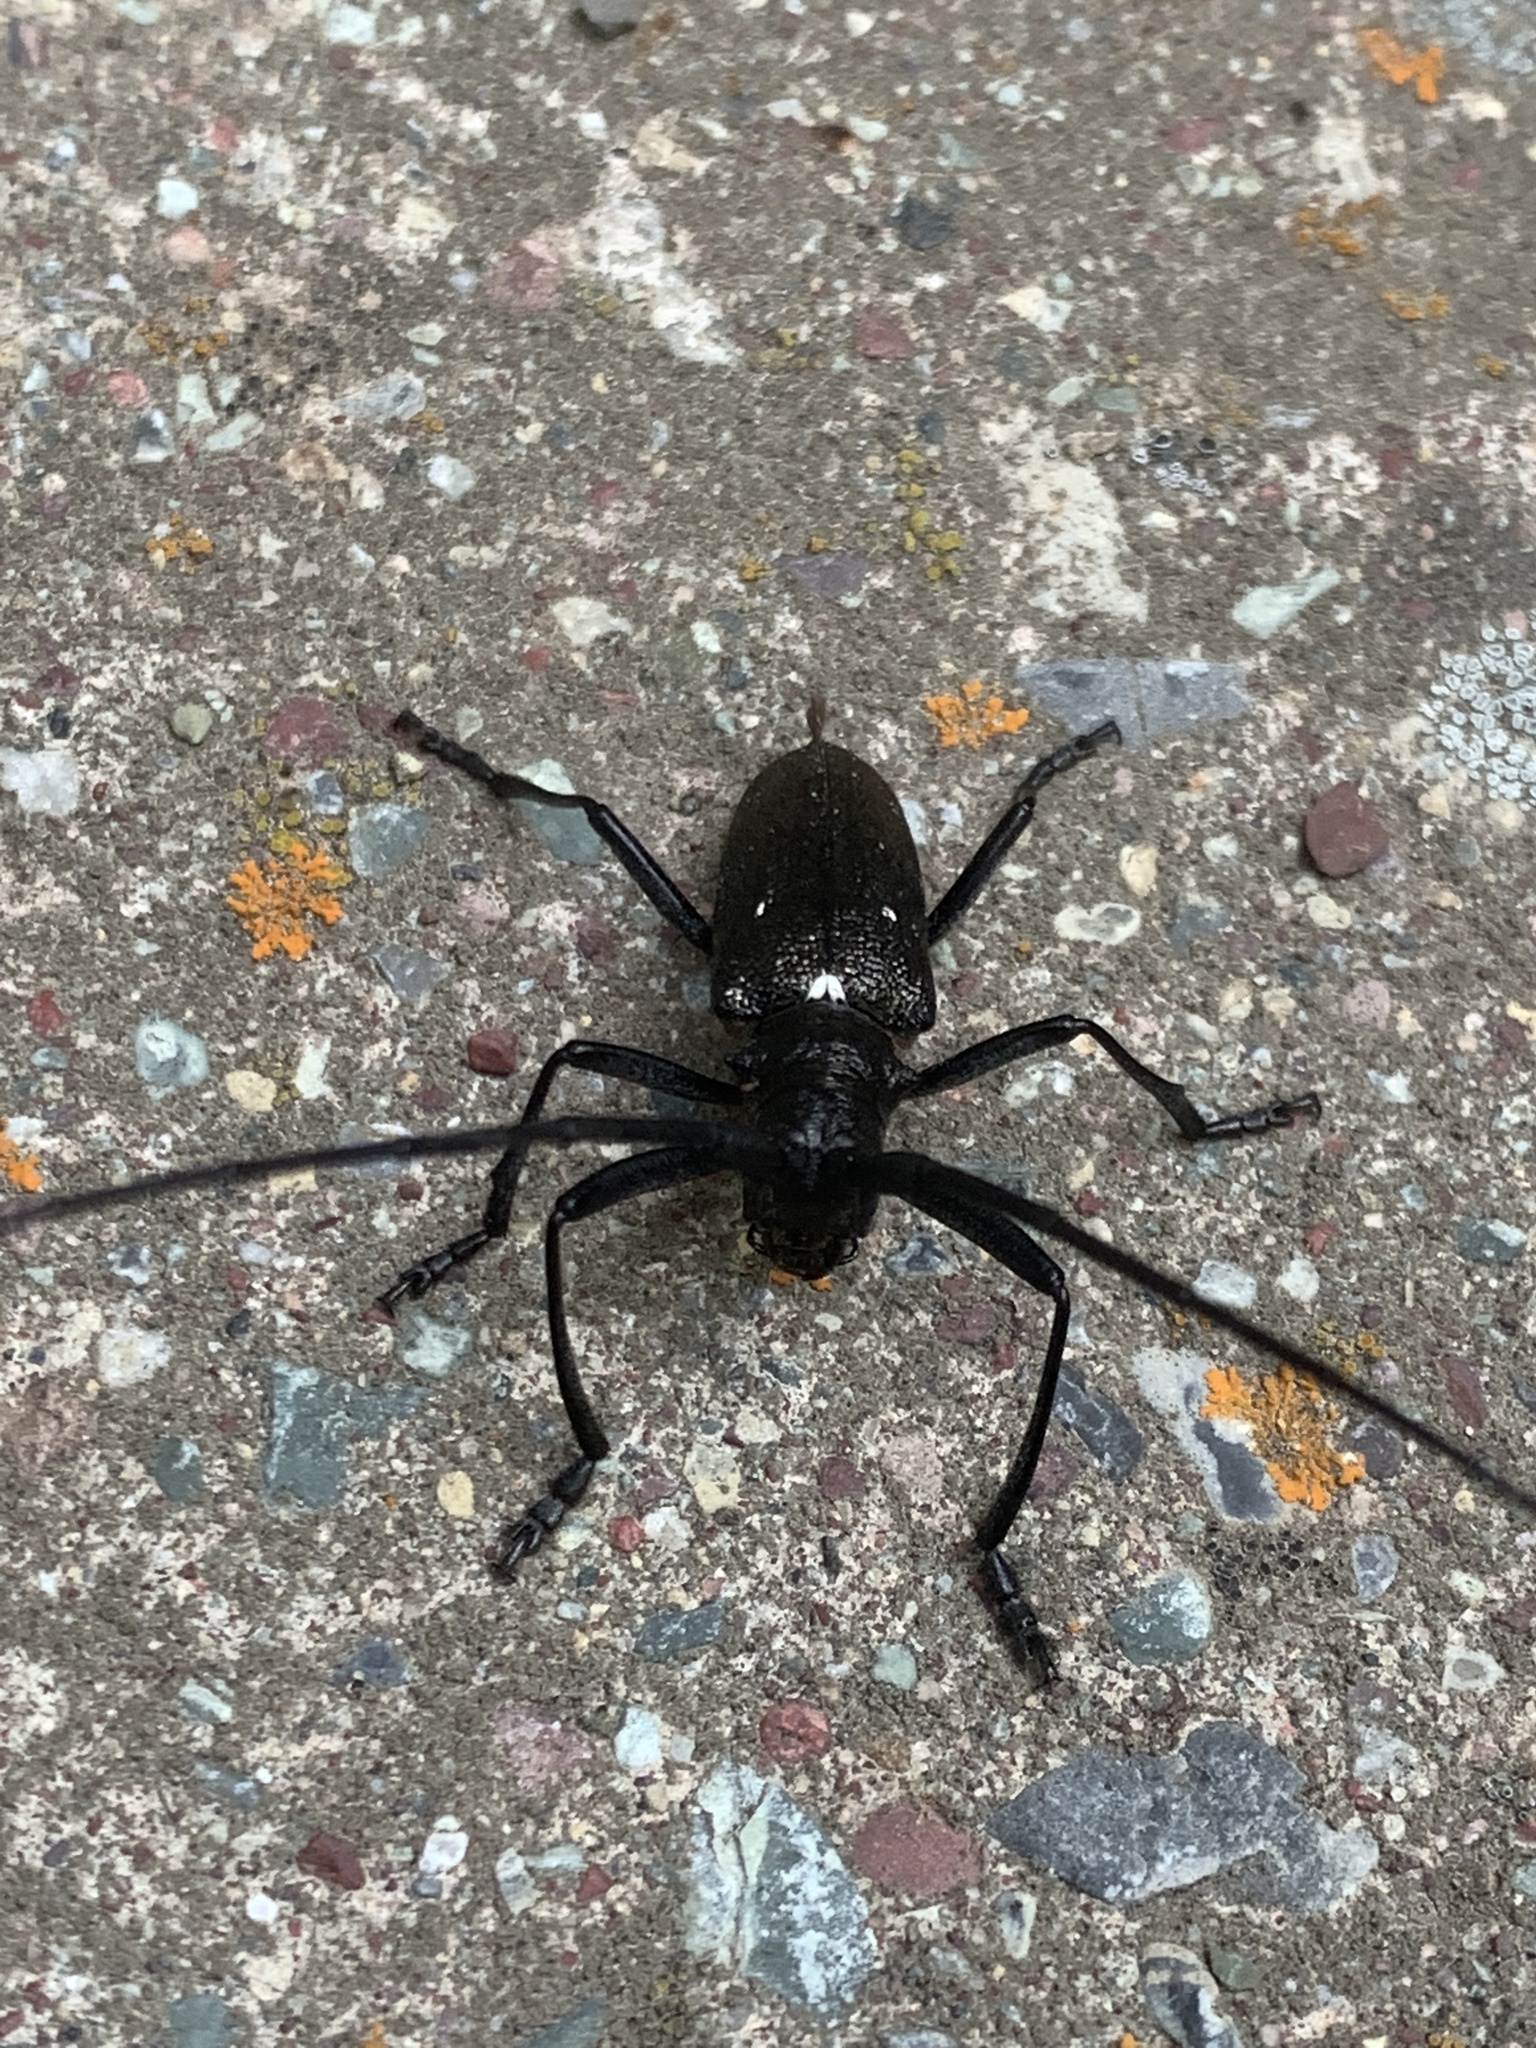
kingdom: Animalia
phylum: Arthropoda
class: Insecta
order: Coleoptera
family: Cerambycidae
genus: Monochamus
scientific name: Monochamus scutellatus
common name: White-spotted sawyer beetle
